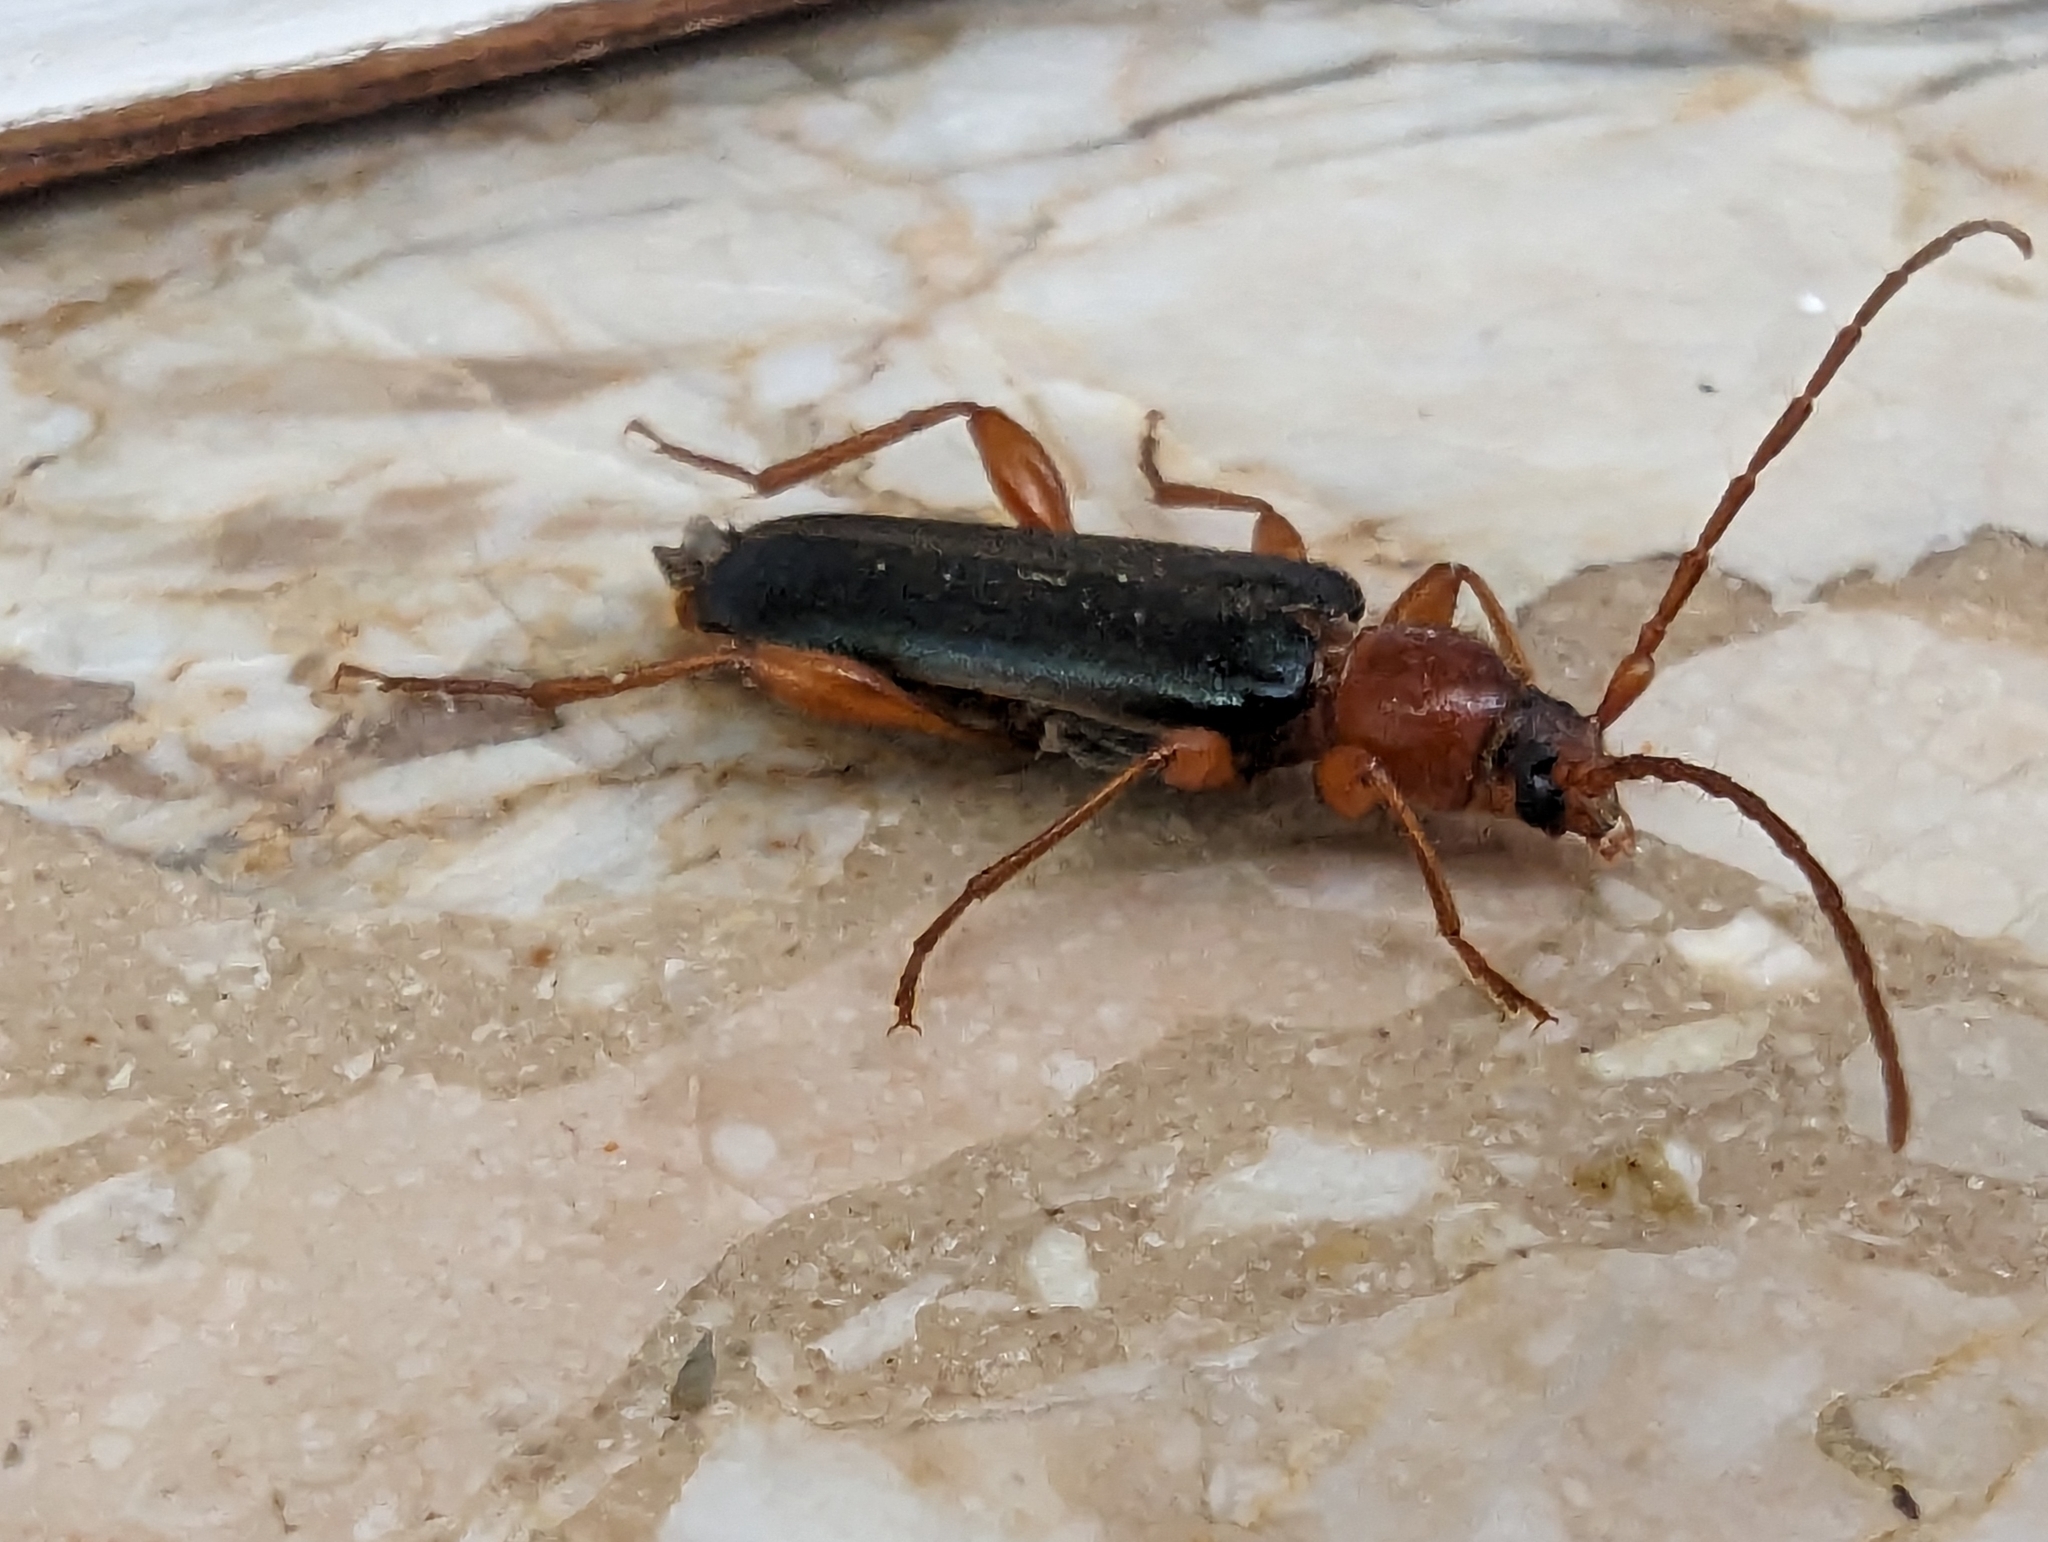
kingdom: Animalia
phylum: Arthropoda
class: Insecta
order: Coleoptera
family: Cerambycidae
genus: Phymatodes
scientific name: Phymatodes testaceus
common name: Long-horned beetle
